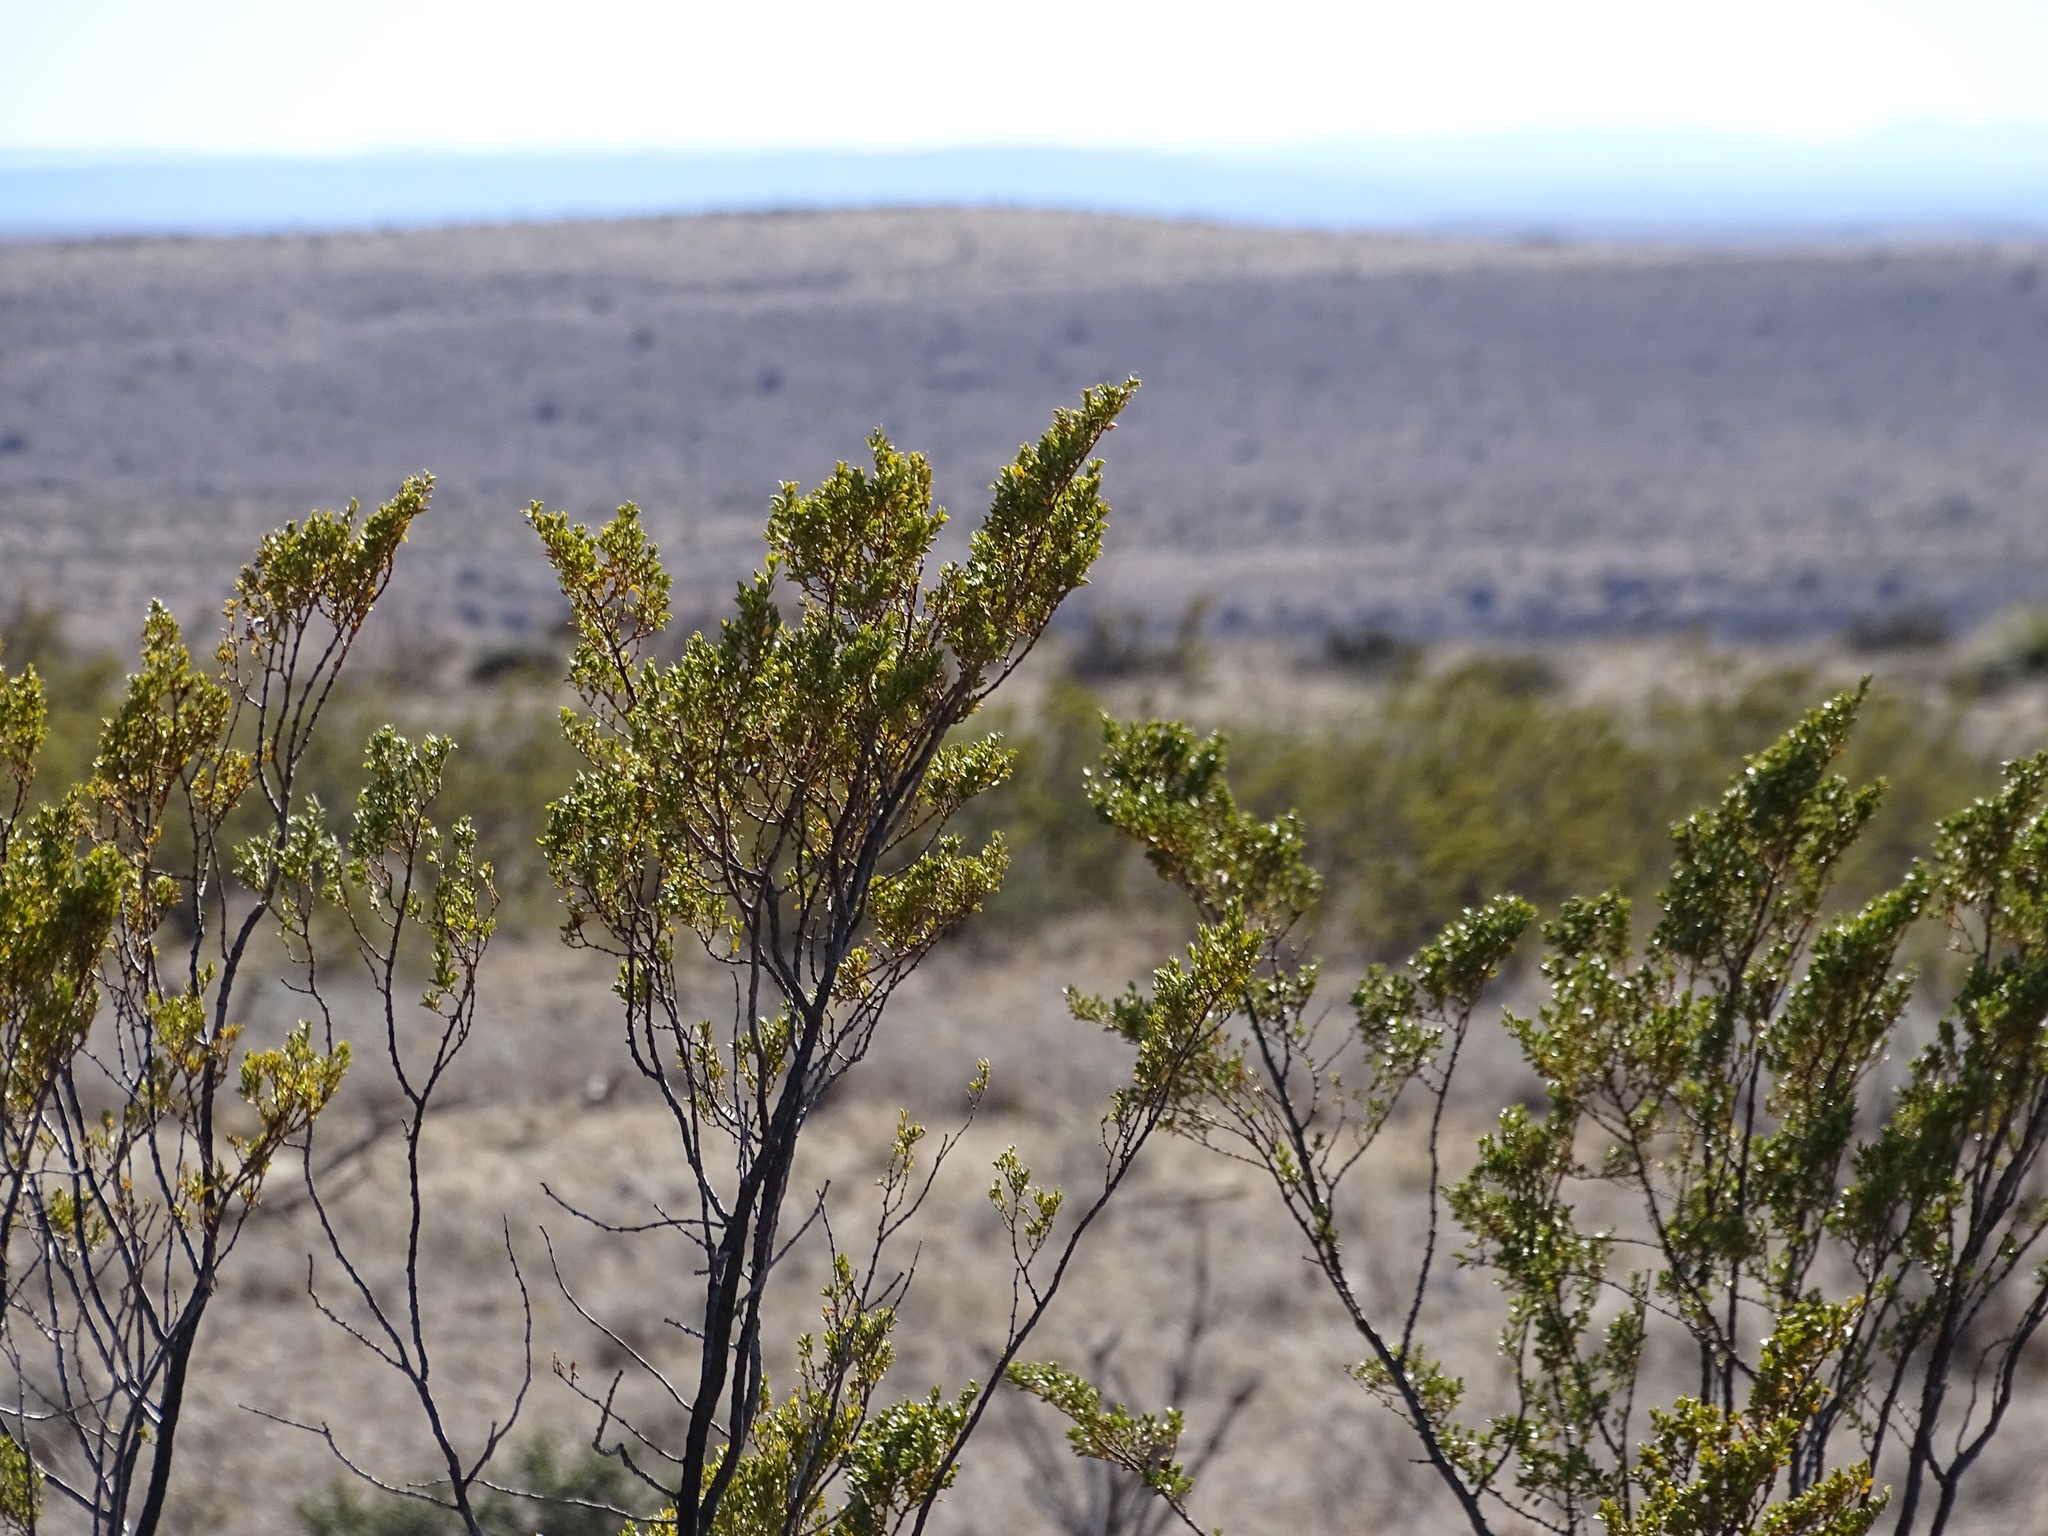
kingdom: Plantae
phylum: Tracheophyta
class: Magnoliopsida
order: Zygophyllales
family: Zygophyllaceae
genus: Larrea
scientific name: Larrea tridentata
